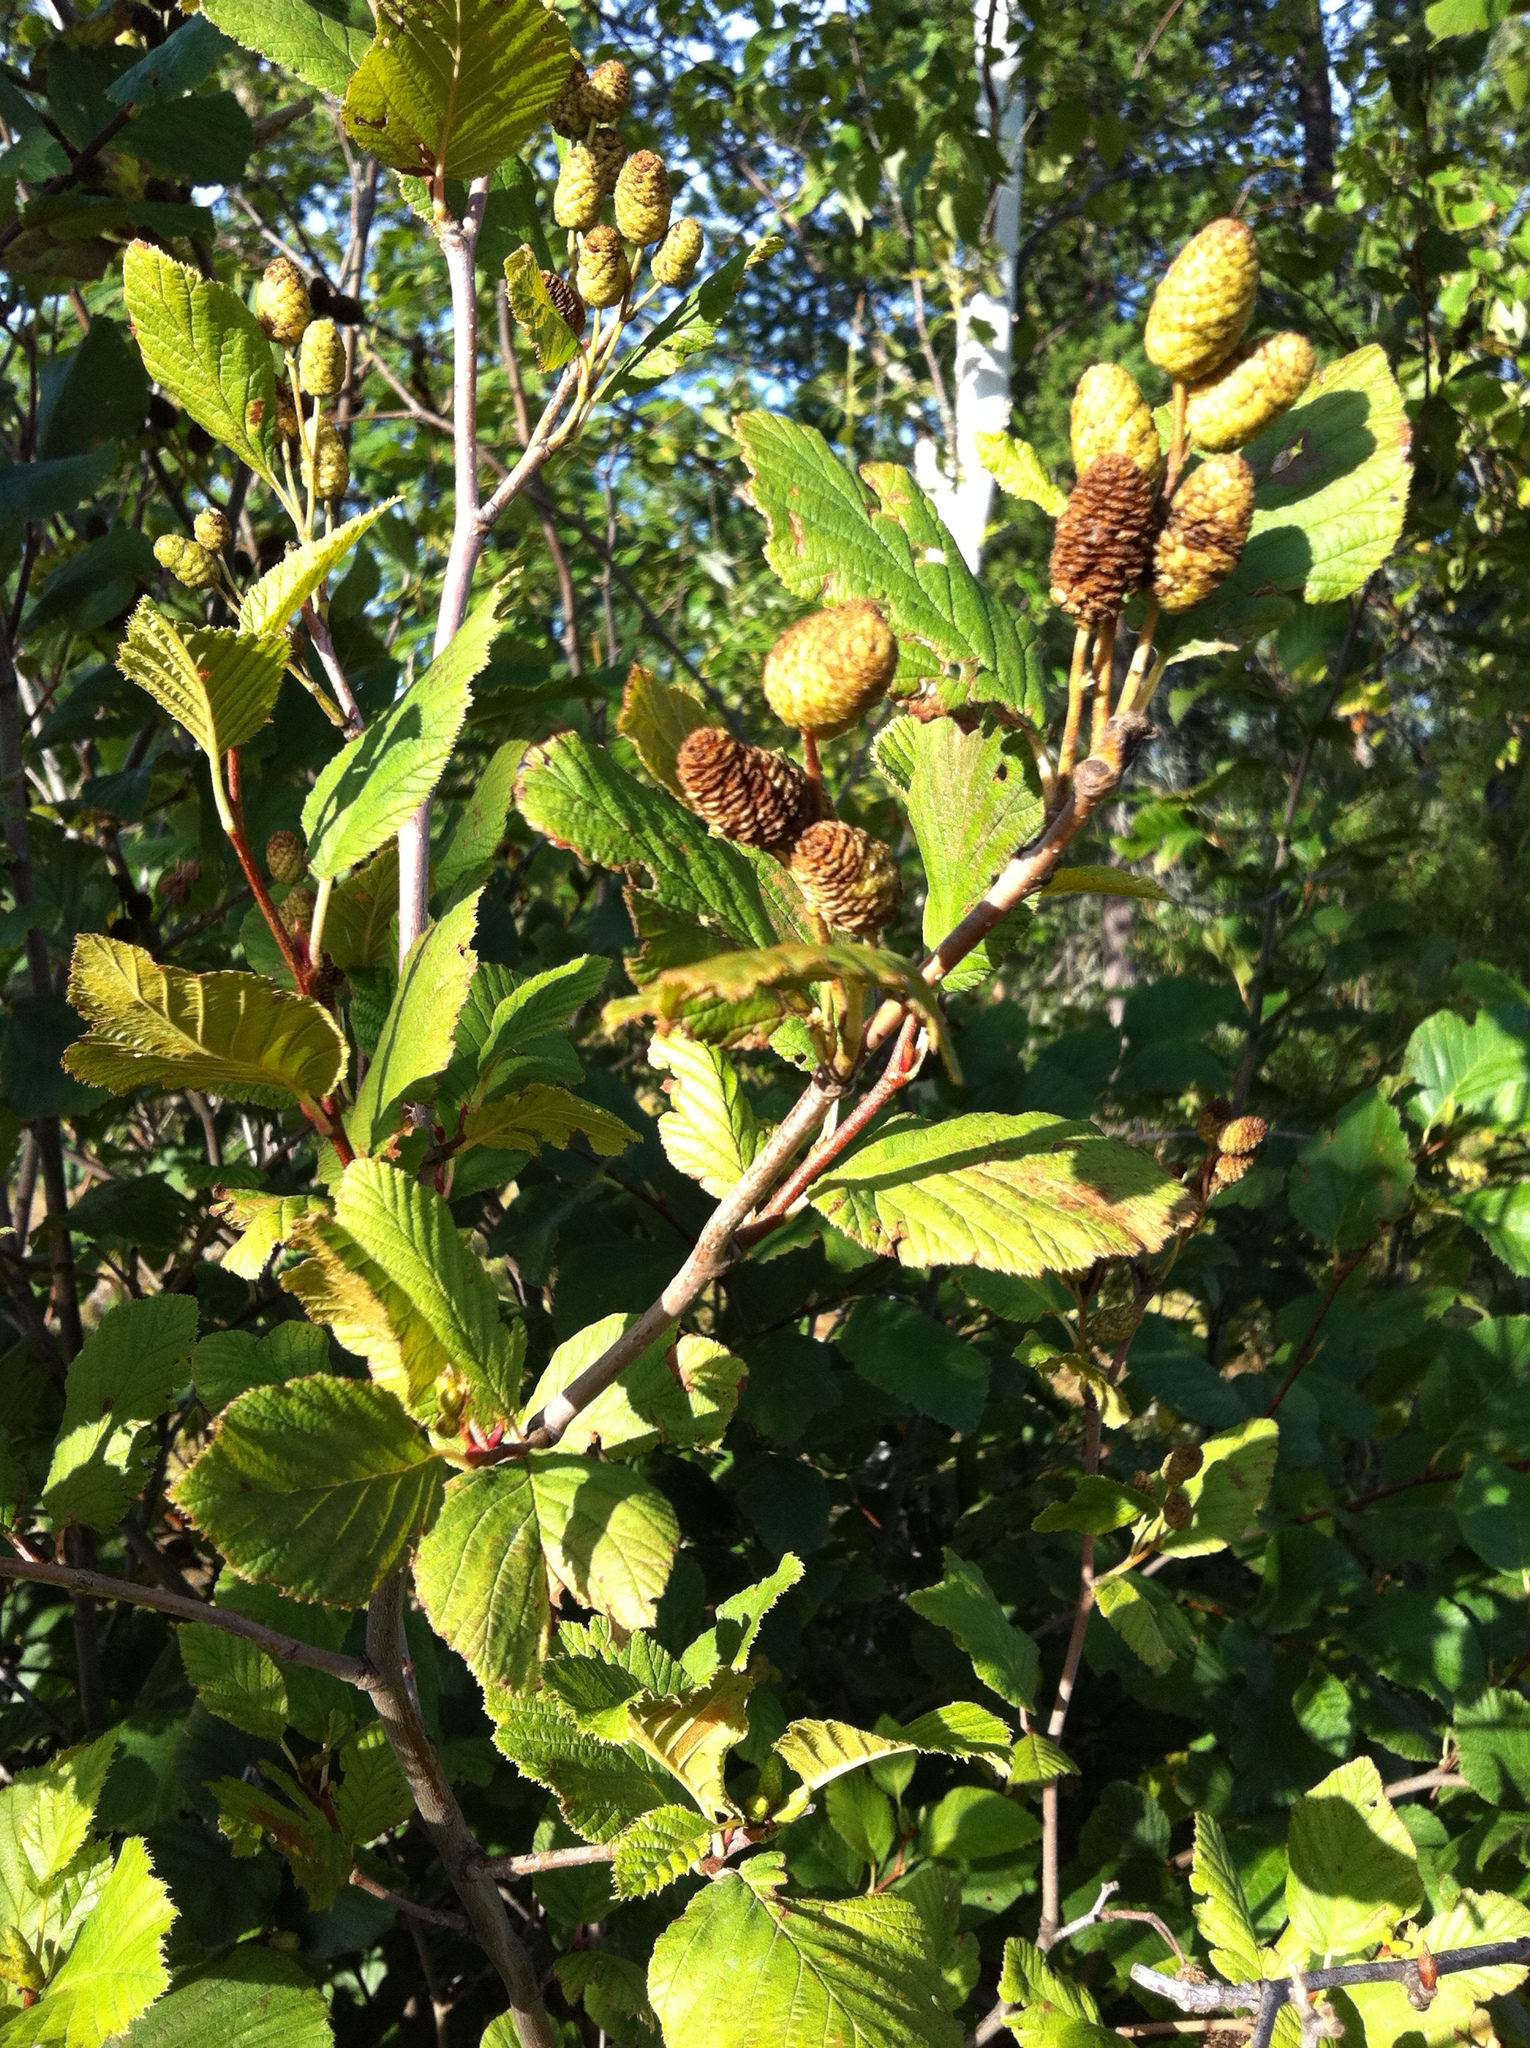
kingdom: Plantae
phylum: Tracheophyta
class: Magnoliopsida
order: Fagales
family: Betulaceae
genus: Alnus
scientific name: Alnus alnobetula
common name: Green alder
